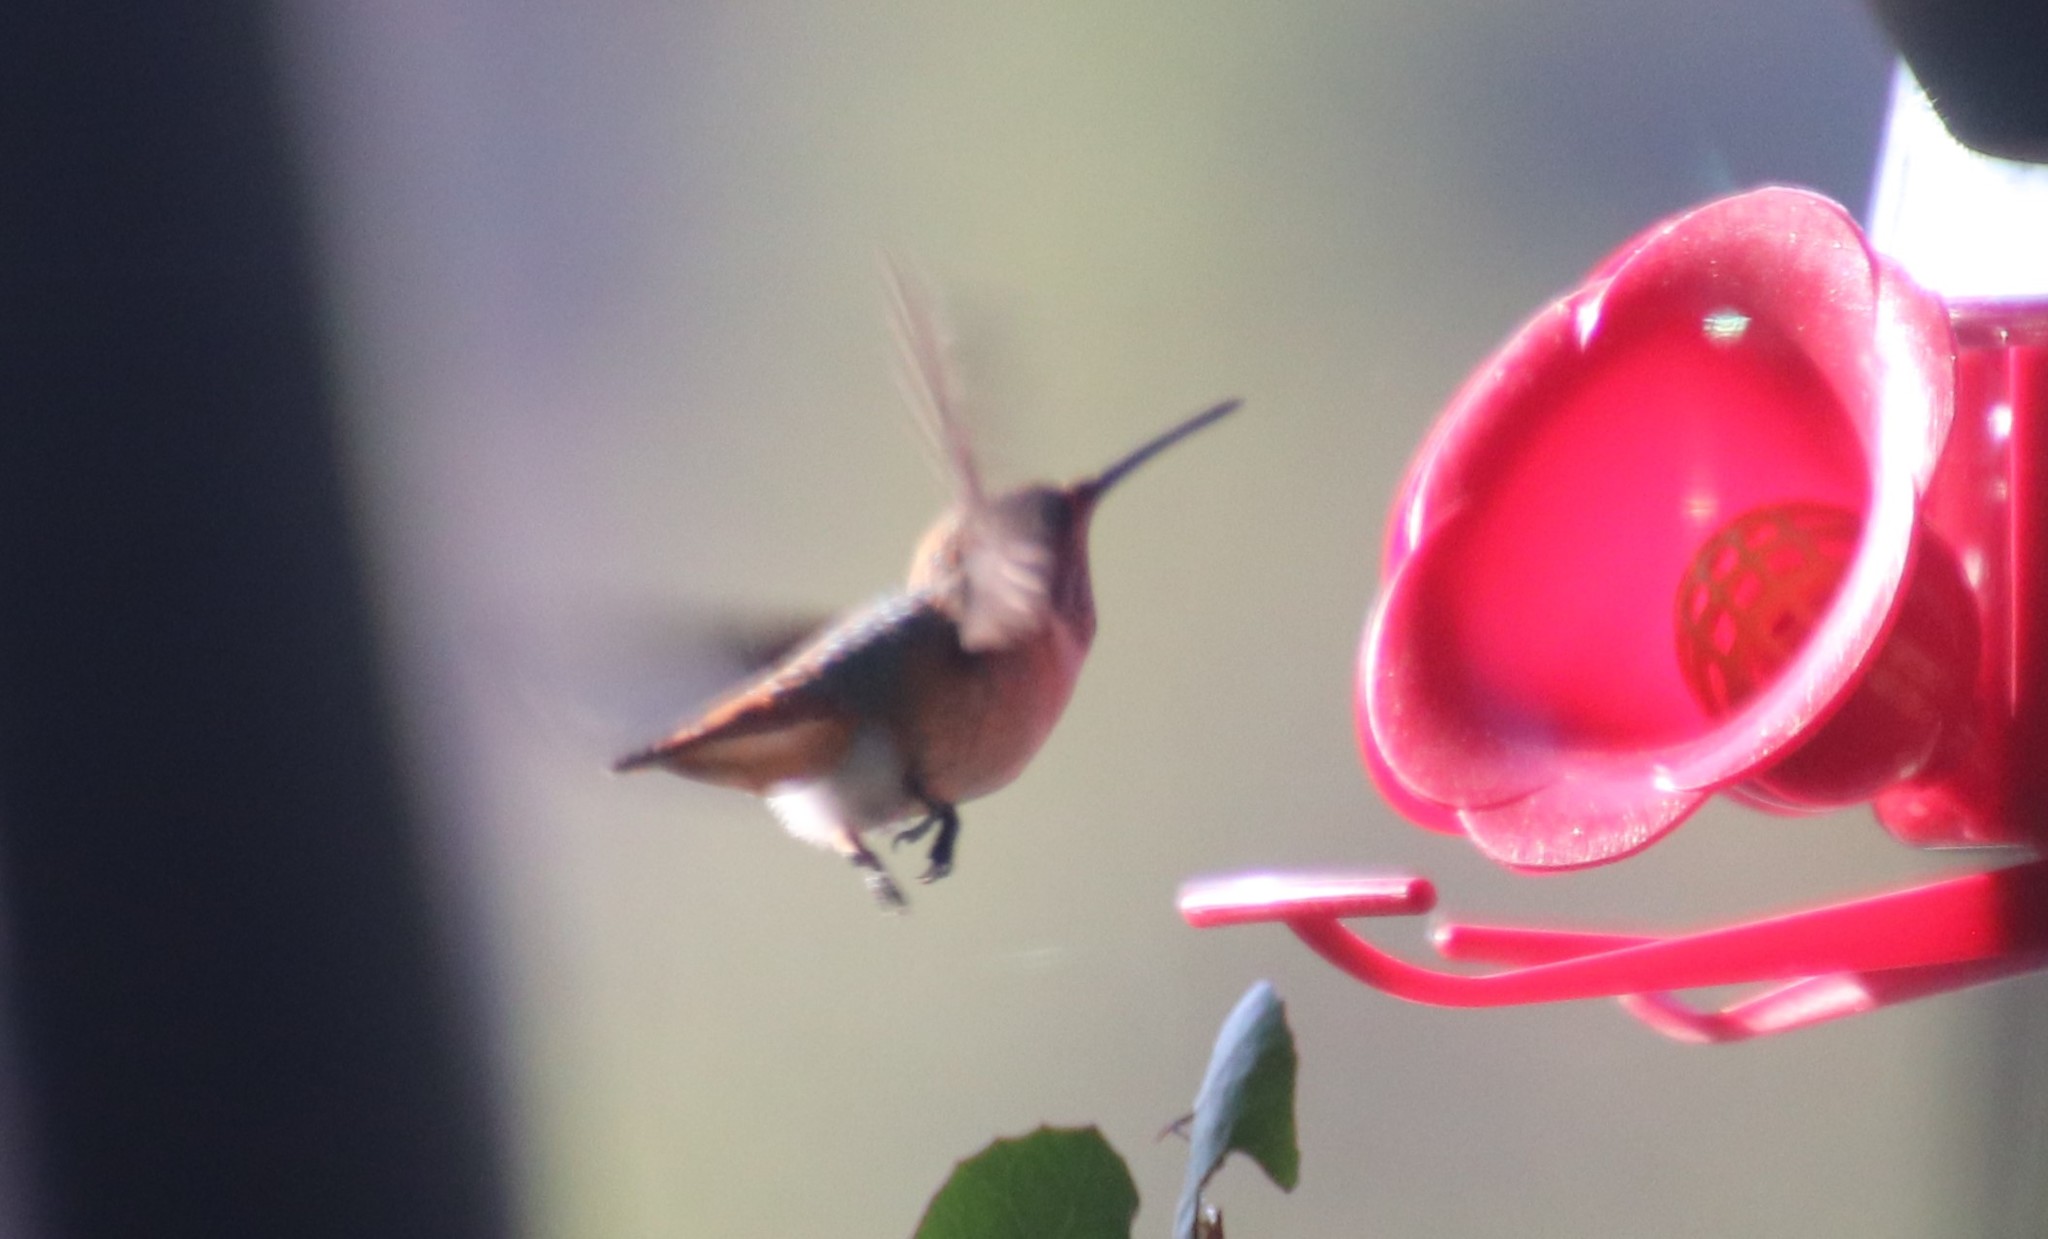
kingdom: Animalia
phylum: Chordata
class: Aves
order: Apodiformes
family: Trochilidae
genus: Selasphorus
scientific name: Selasphorus sasin
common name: Allen's hummingbird
